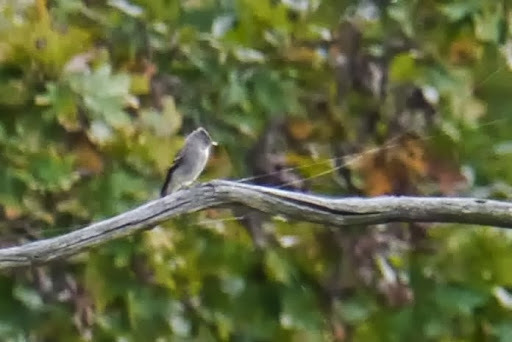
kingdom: Animalia
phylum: Chordata
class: Aves
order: Passeriformes
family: Tyrannidae
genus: Contopus
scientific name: Contopus virens
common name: Eastern wood-pewee
